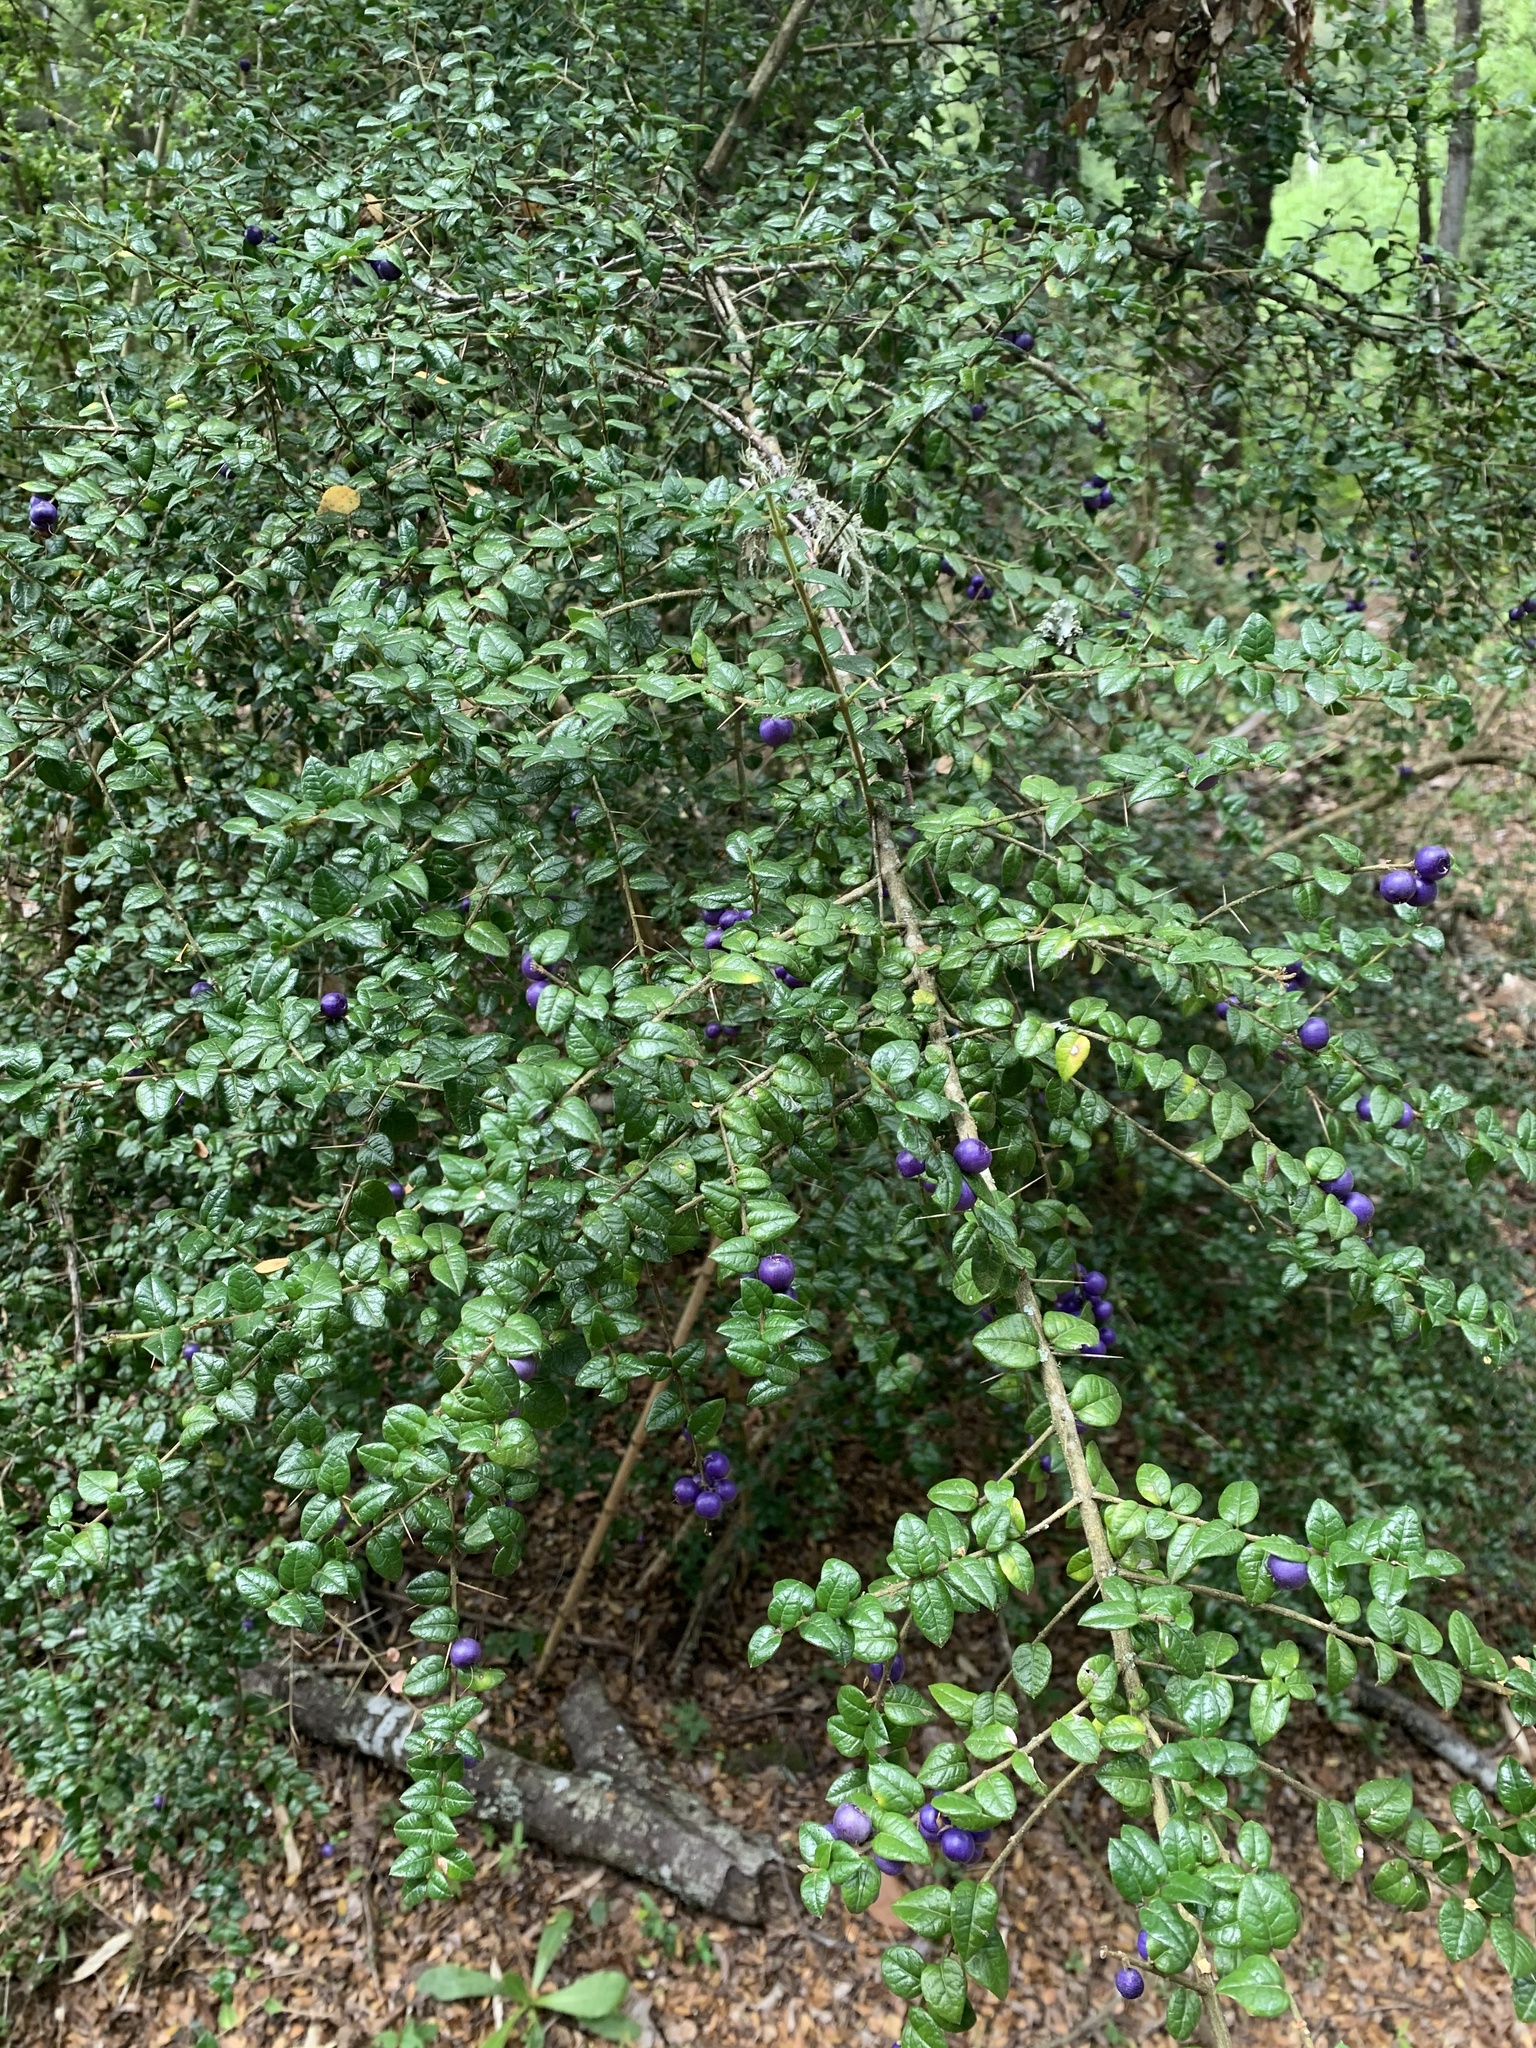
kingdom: Plantae
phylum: Tracheophyta
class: Magnoliopsida
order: Lamiales
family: Verbenaceae
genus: Rhaphithamnus
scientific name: Rhaphithamnus spinosus
